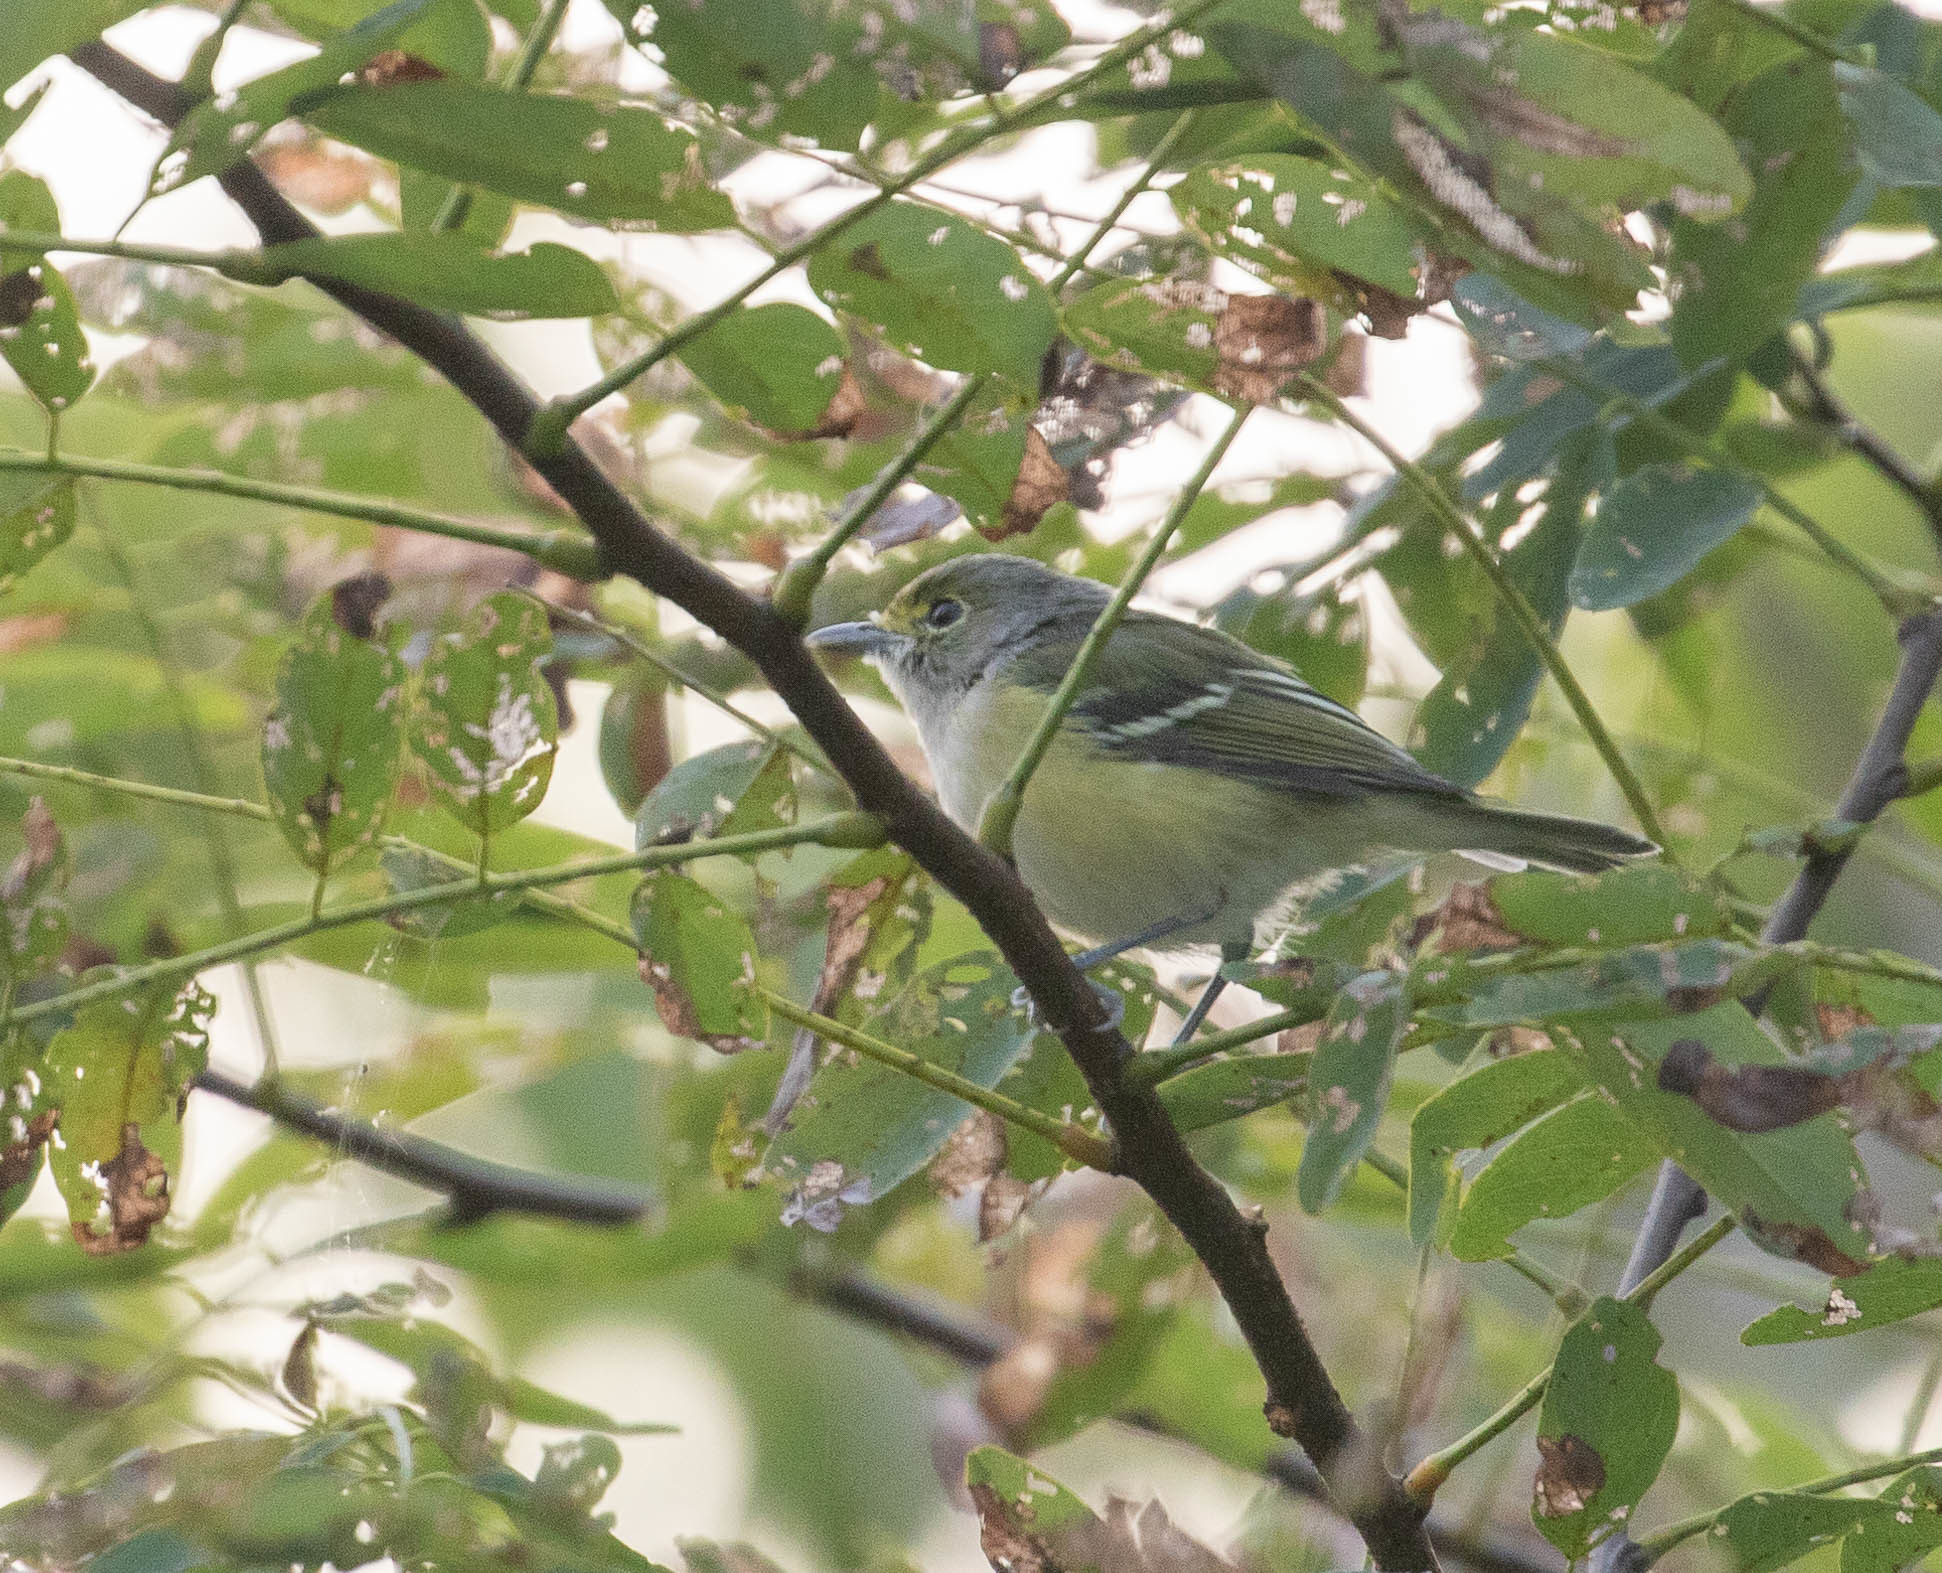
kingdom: Animalia
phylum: Chordata
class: Aves
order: Passeriformes
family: Vireonidae
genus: Vireo
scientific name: Vireo griseus
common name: White-eyed vireo
